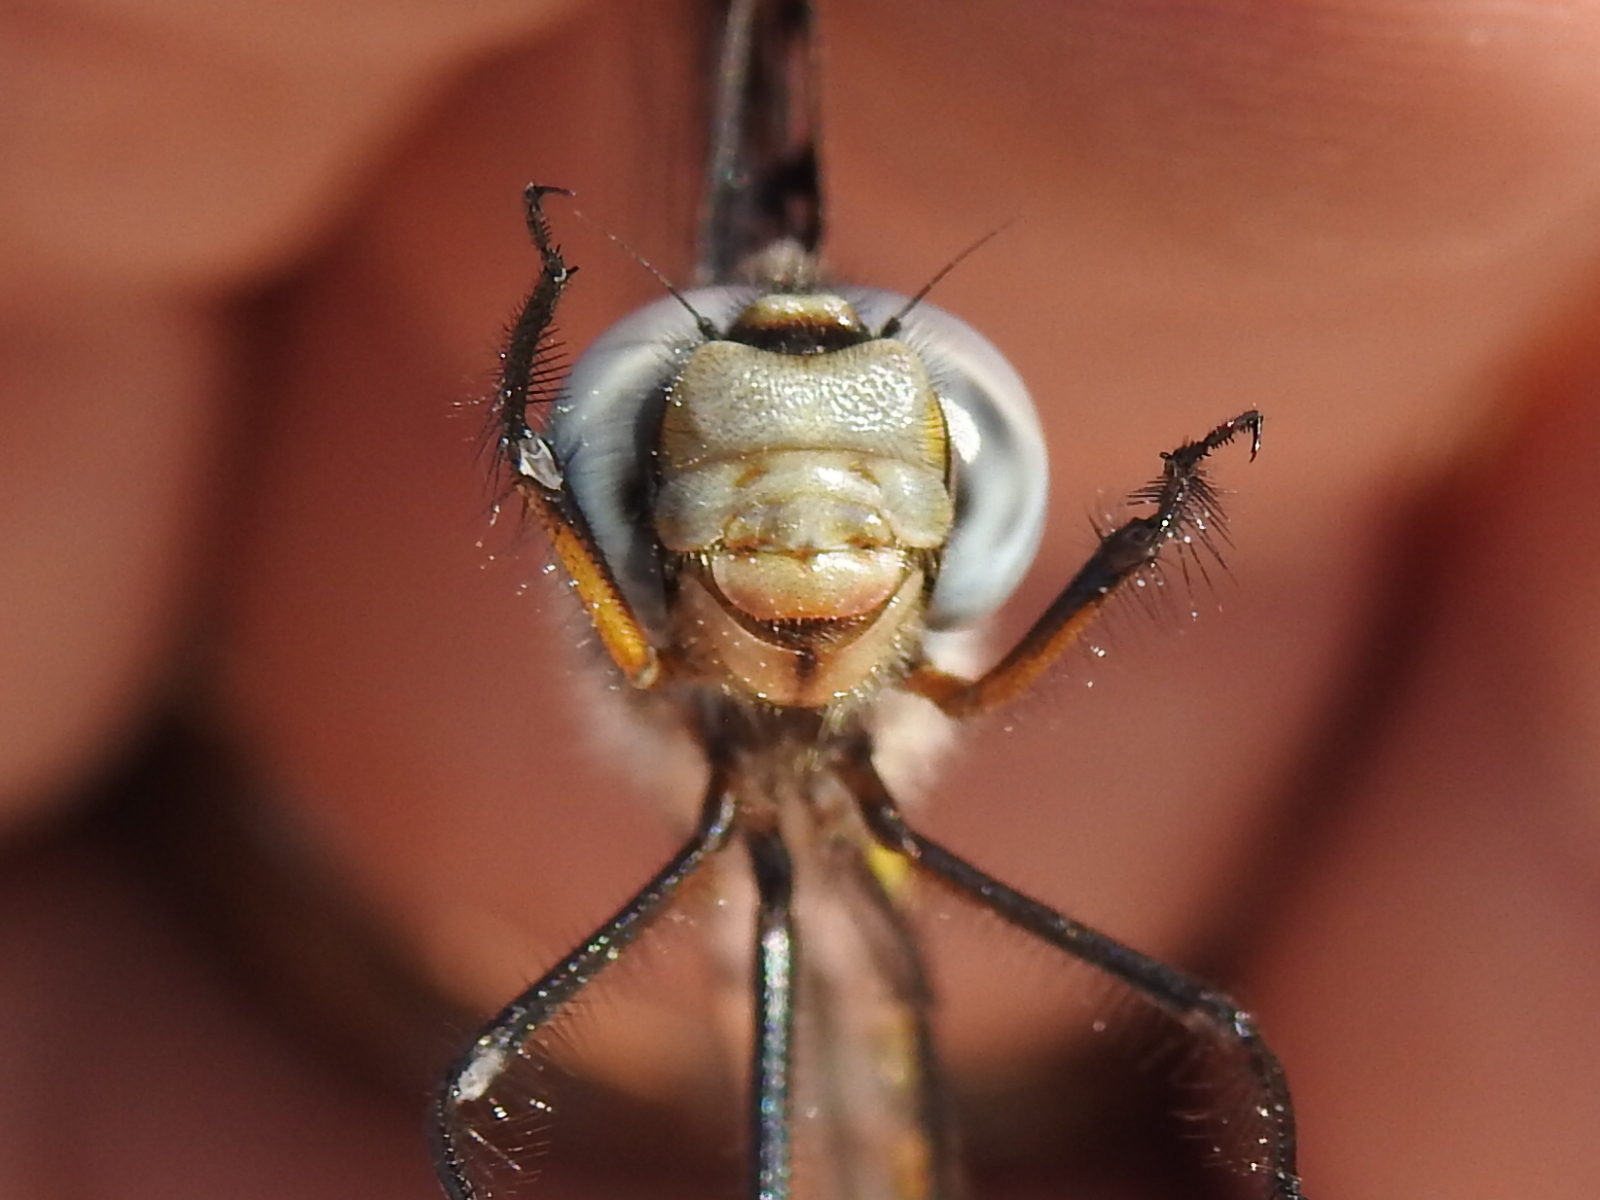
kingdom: Animalia
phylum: Arthropoda
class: Insecta
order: Odonata
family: Corduliidae
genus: Epitheca
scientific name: Epitheca petechialis
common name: Dot-winged baskettail
